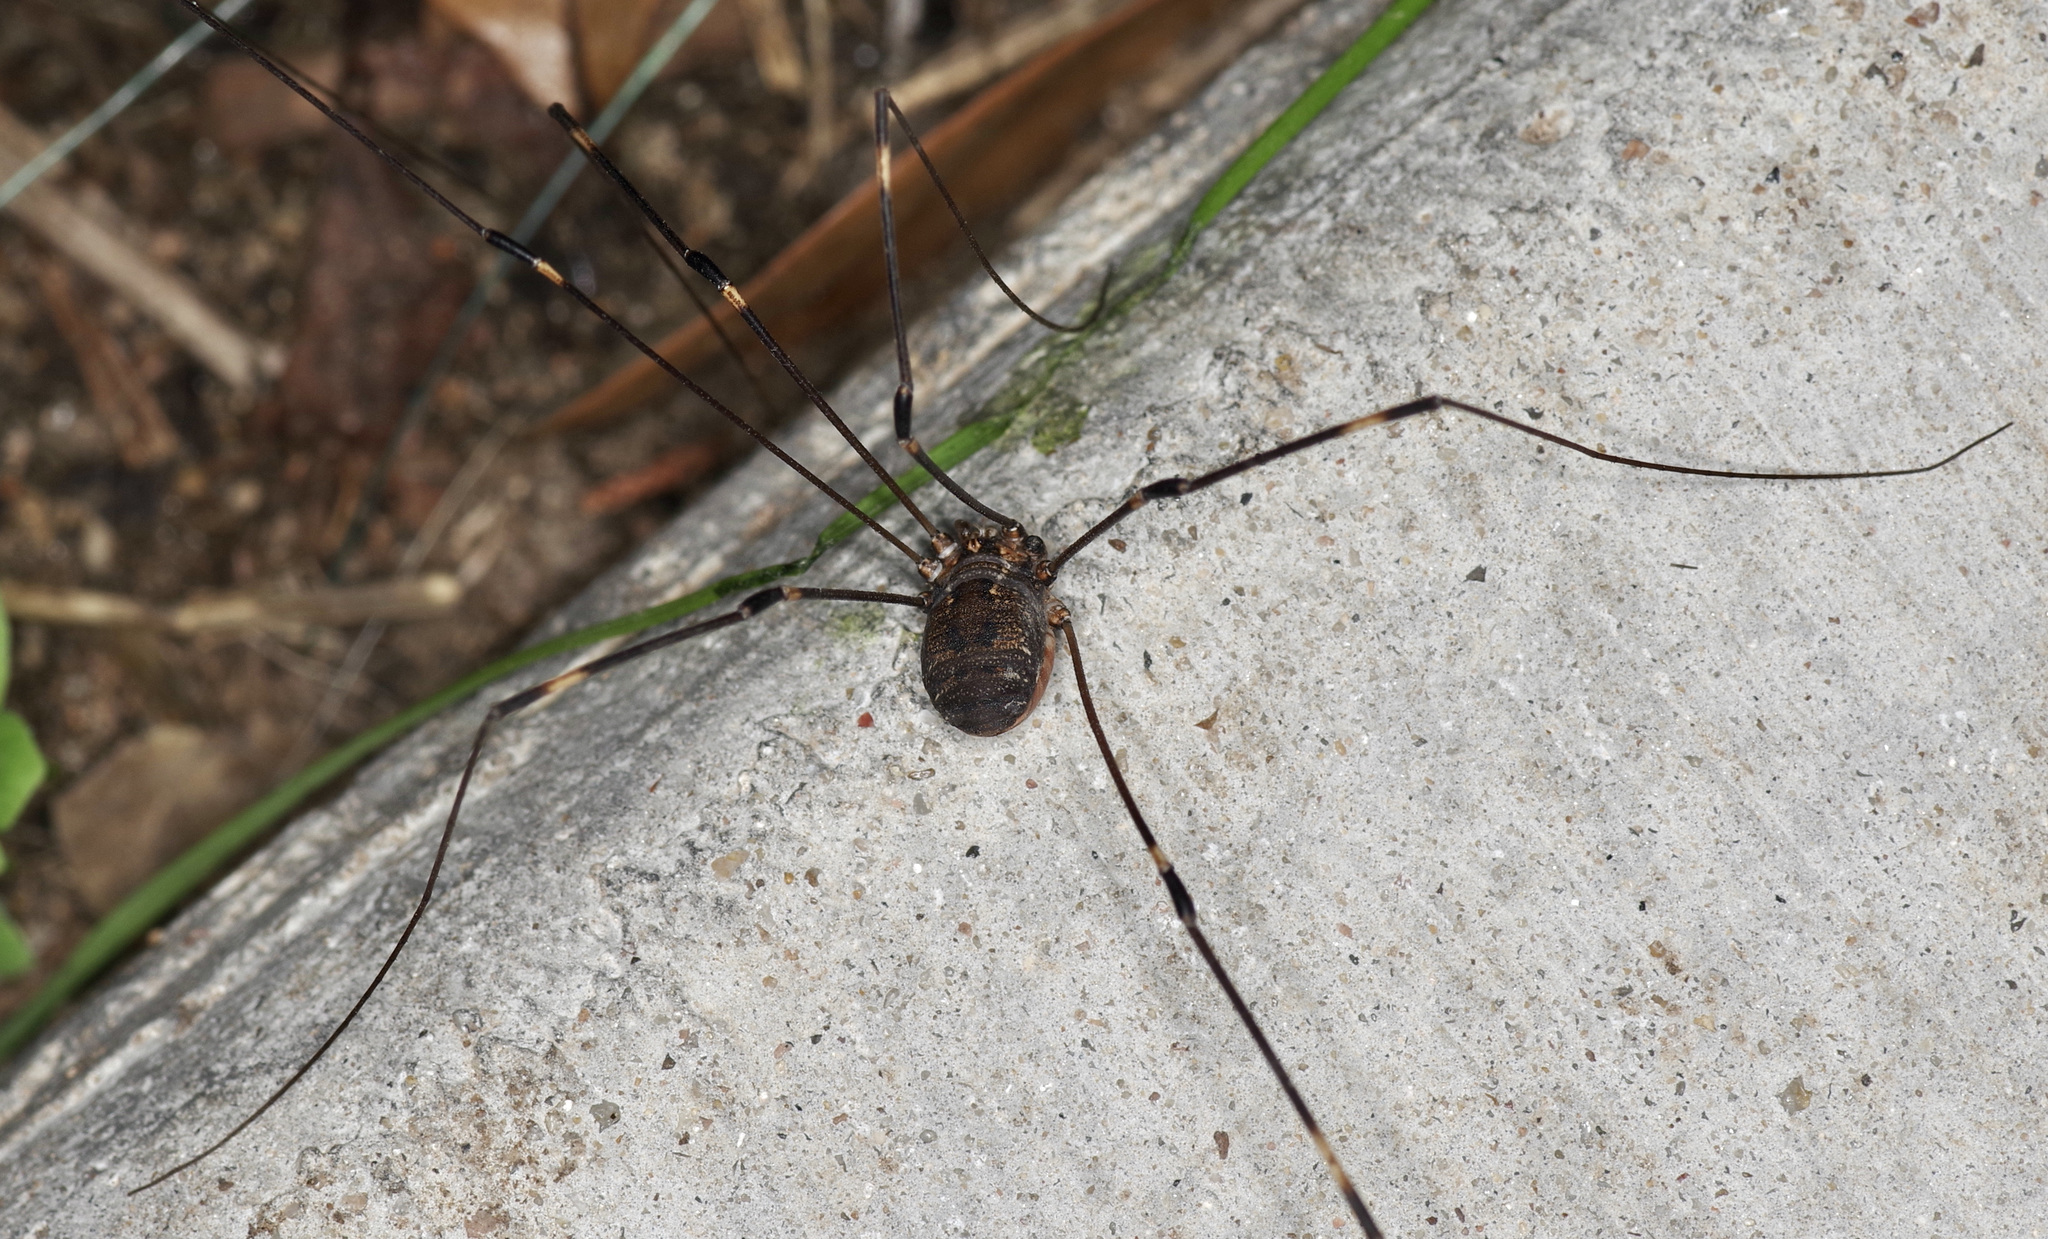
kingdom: Animalia
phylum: Arthropoda
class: Arachnida
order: Opiliones
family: Sclerosomatidae
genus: Leiobunum
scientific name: Leiobunum townsendi
